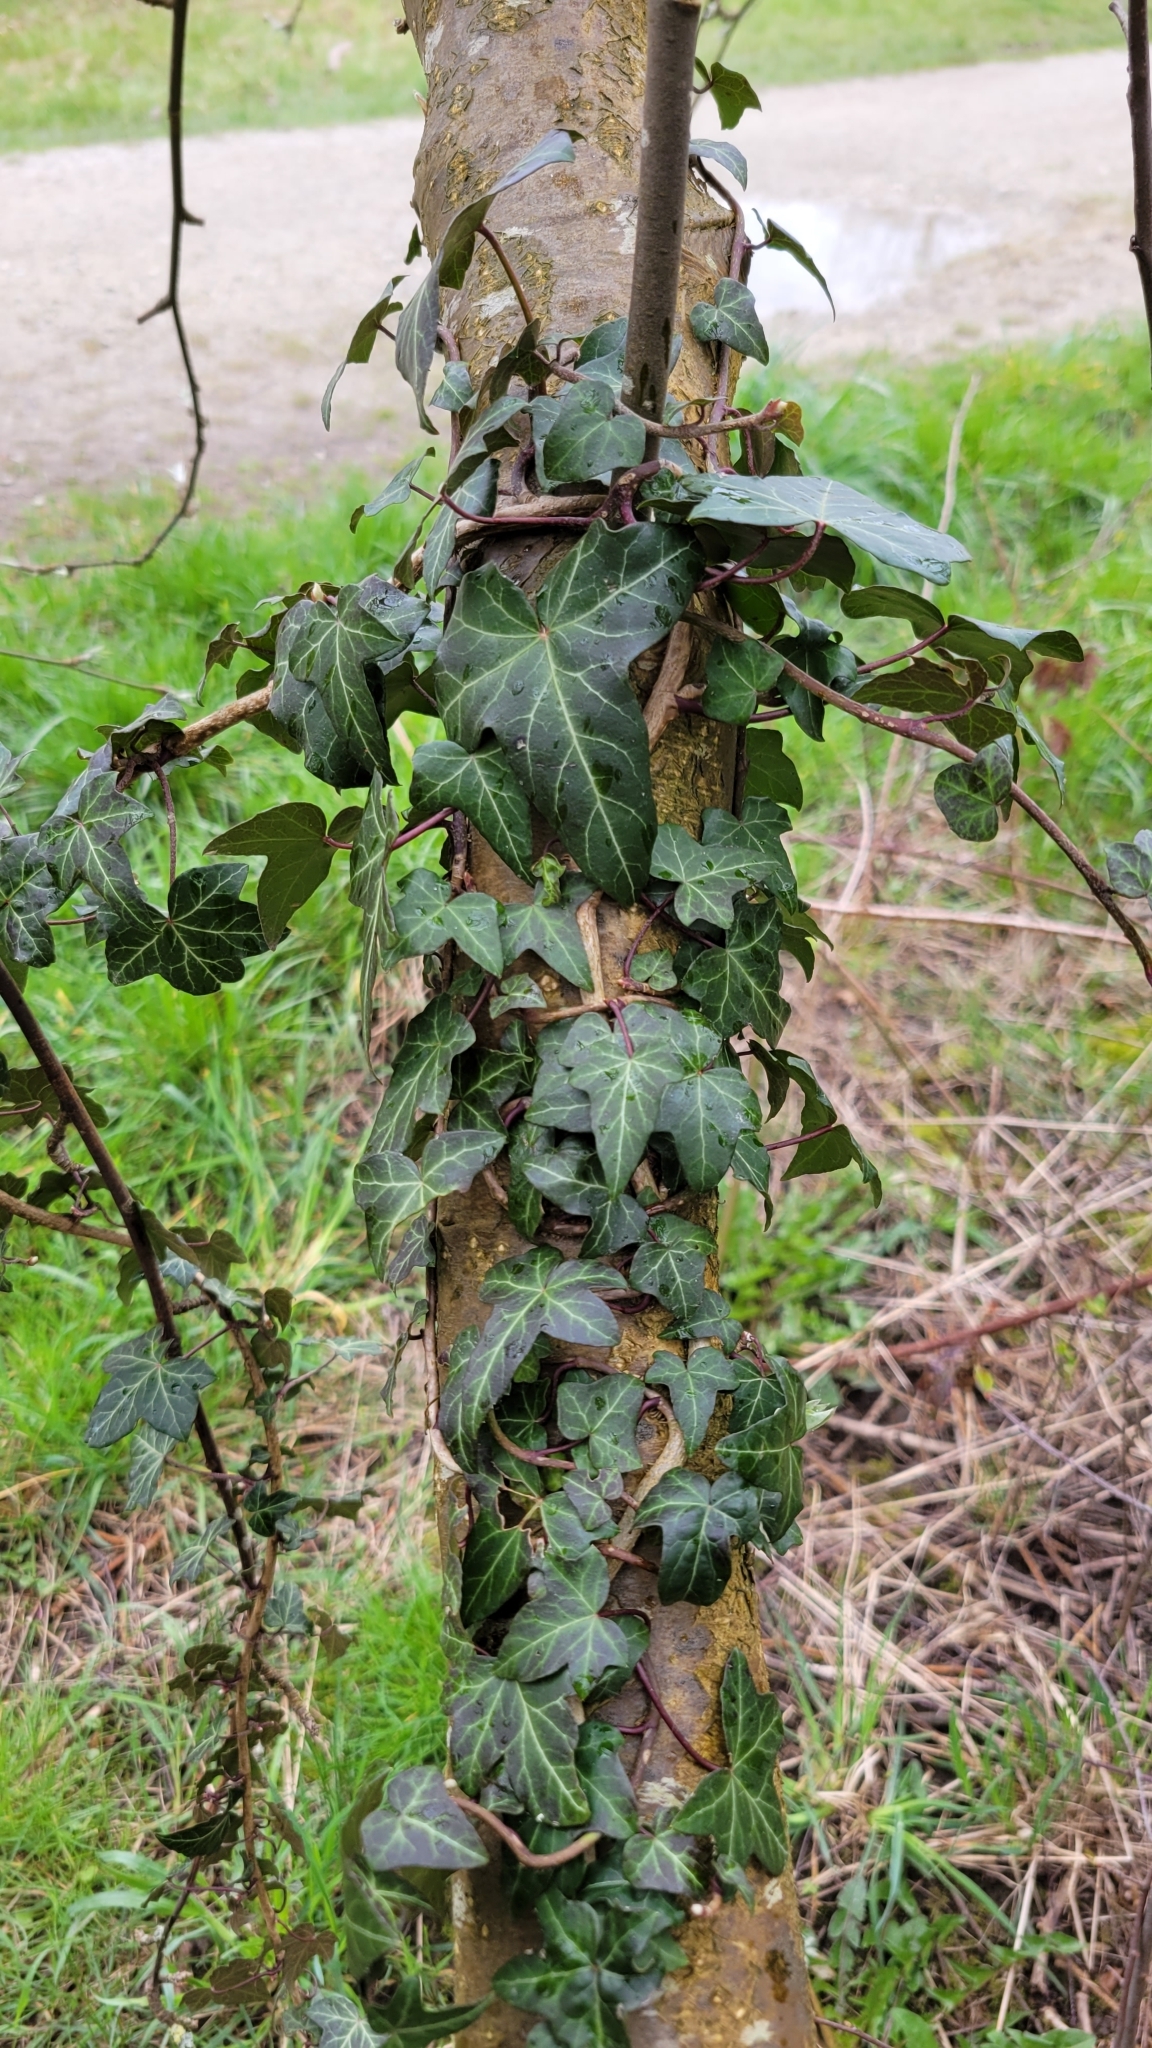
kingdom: Plantae
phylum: Tracheophyta
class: Magnoliopsida
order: Apiales
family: Araliaceae
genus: Hedera
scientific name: Hedera helix
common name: Ivy
